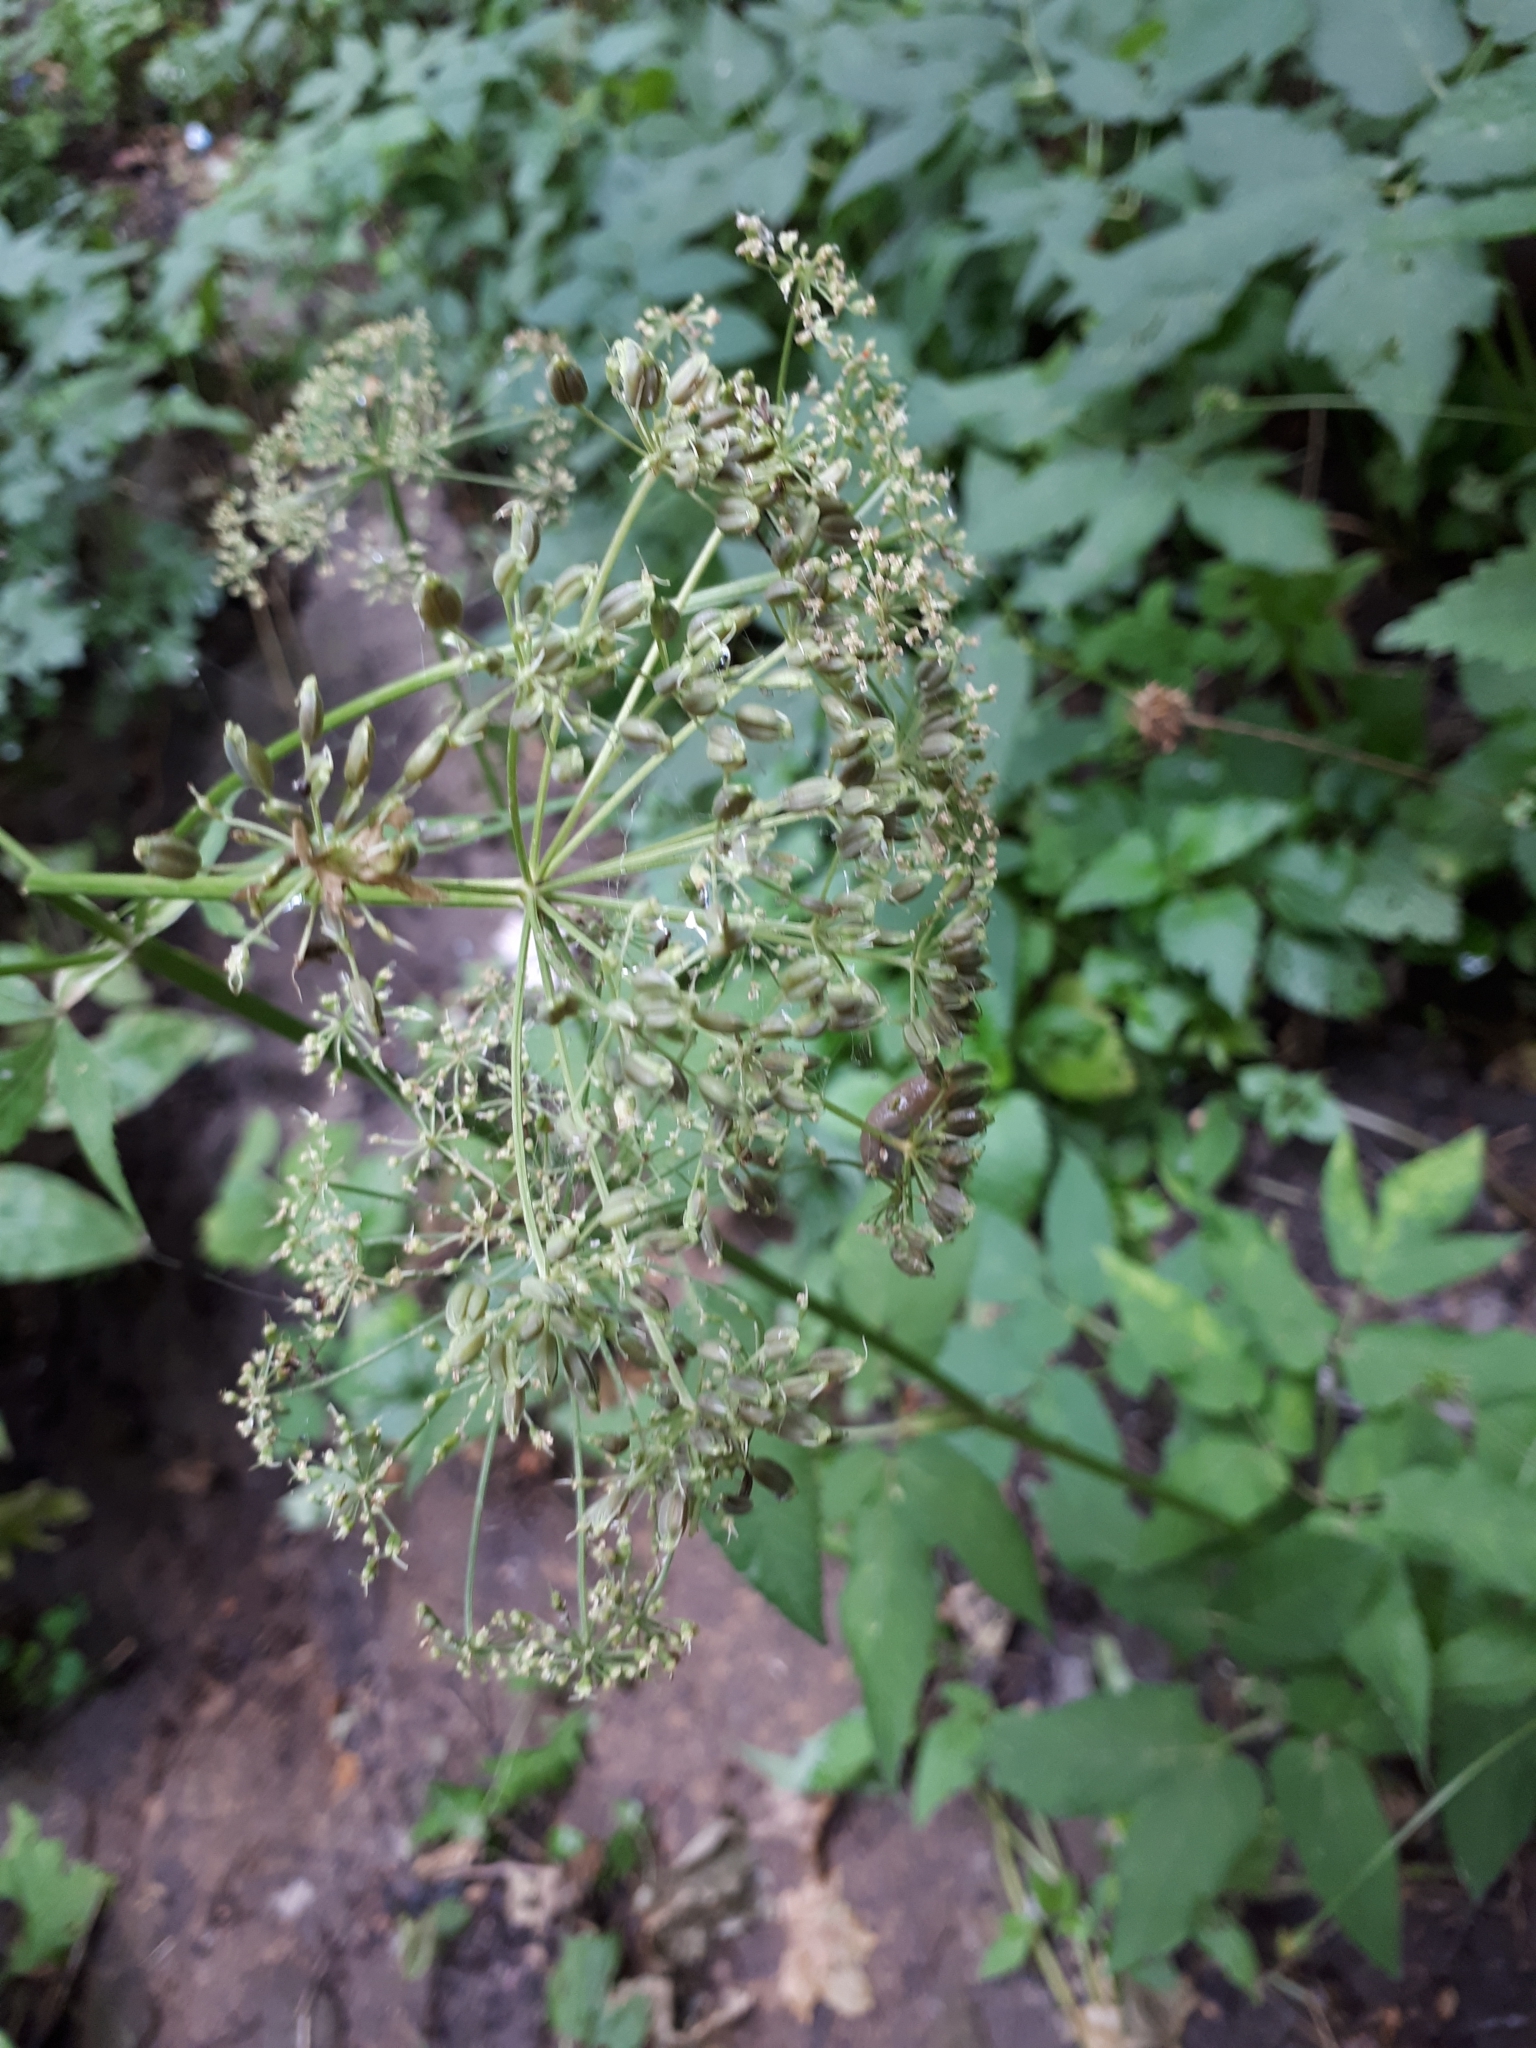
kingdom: Plantae
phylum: Tracheophyta
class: Magnoliopsida
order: Apiales
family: Apiaceae
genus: Aegopodium
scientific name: Aegopodium podagraria
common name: Ground-elder
